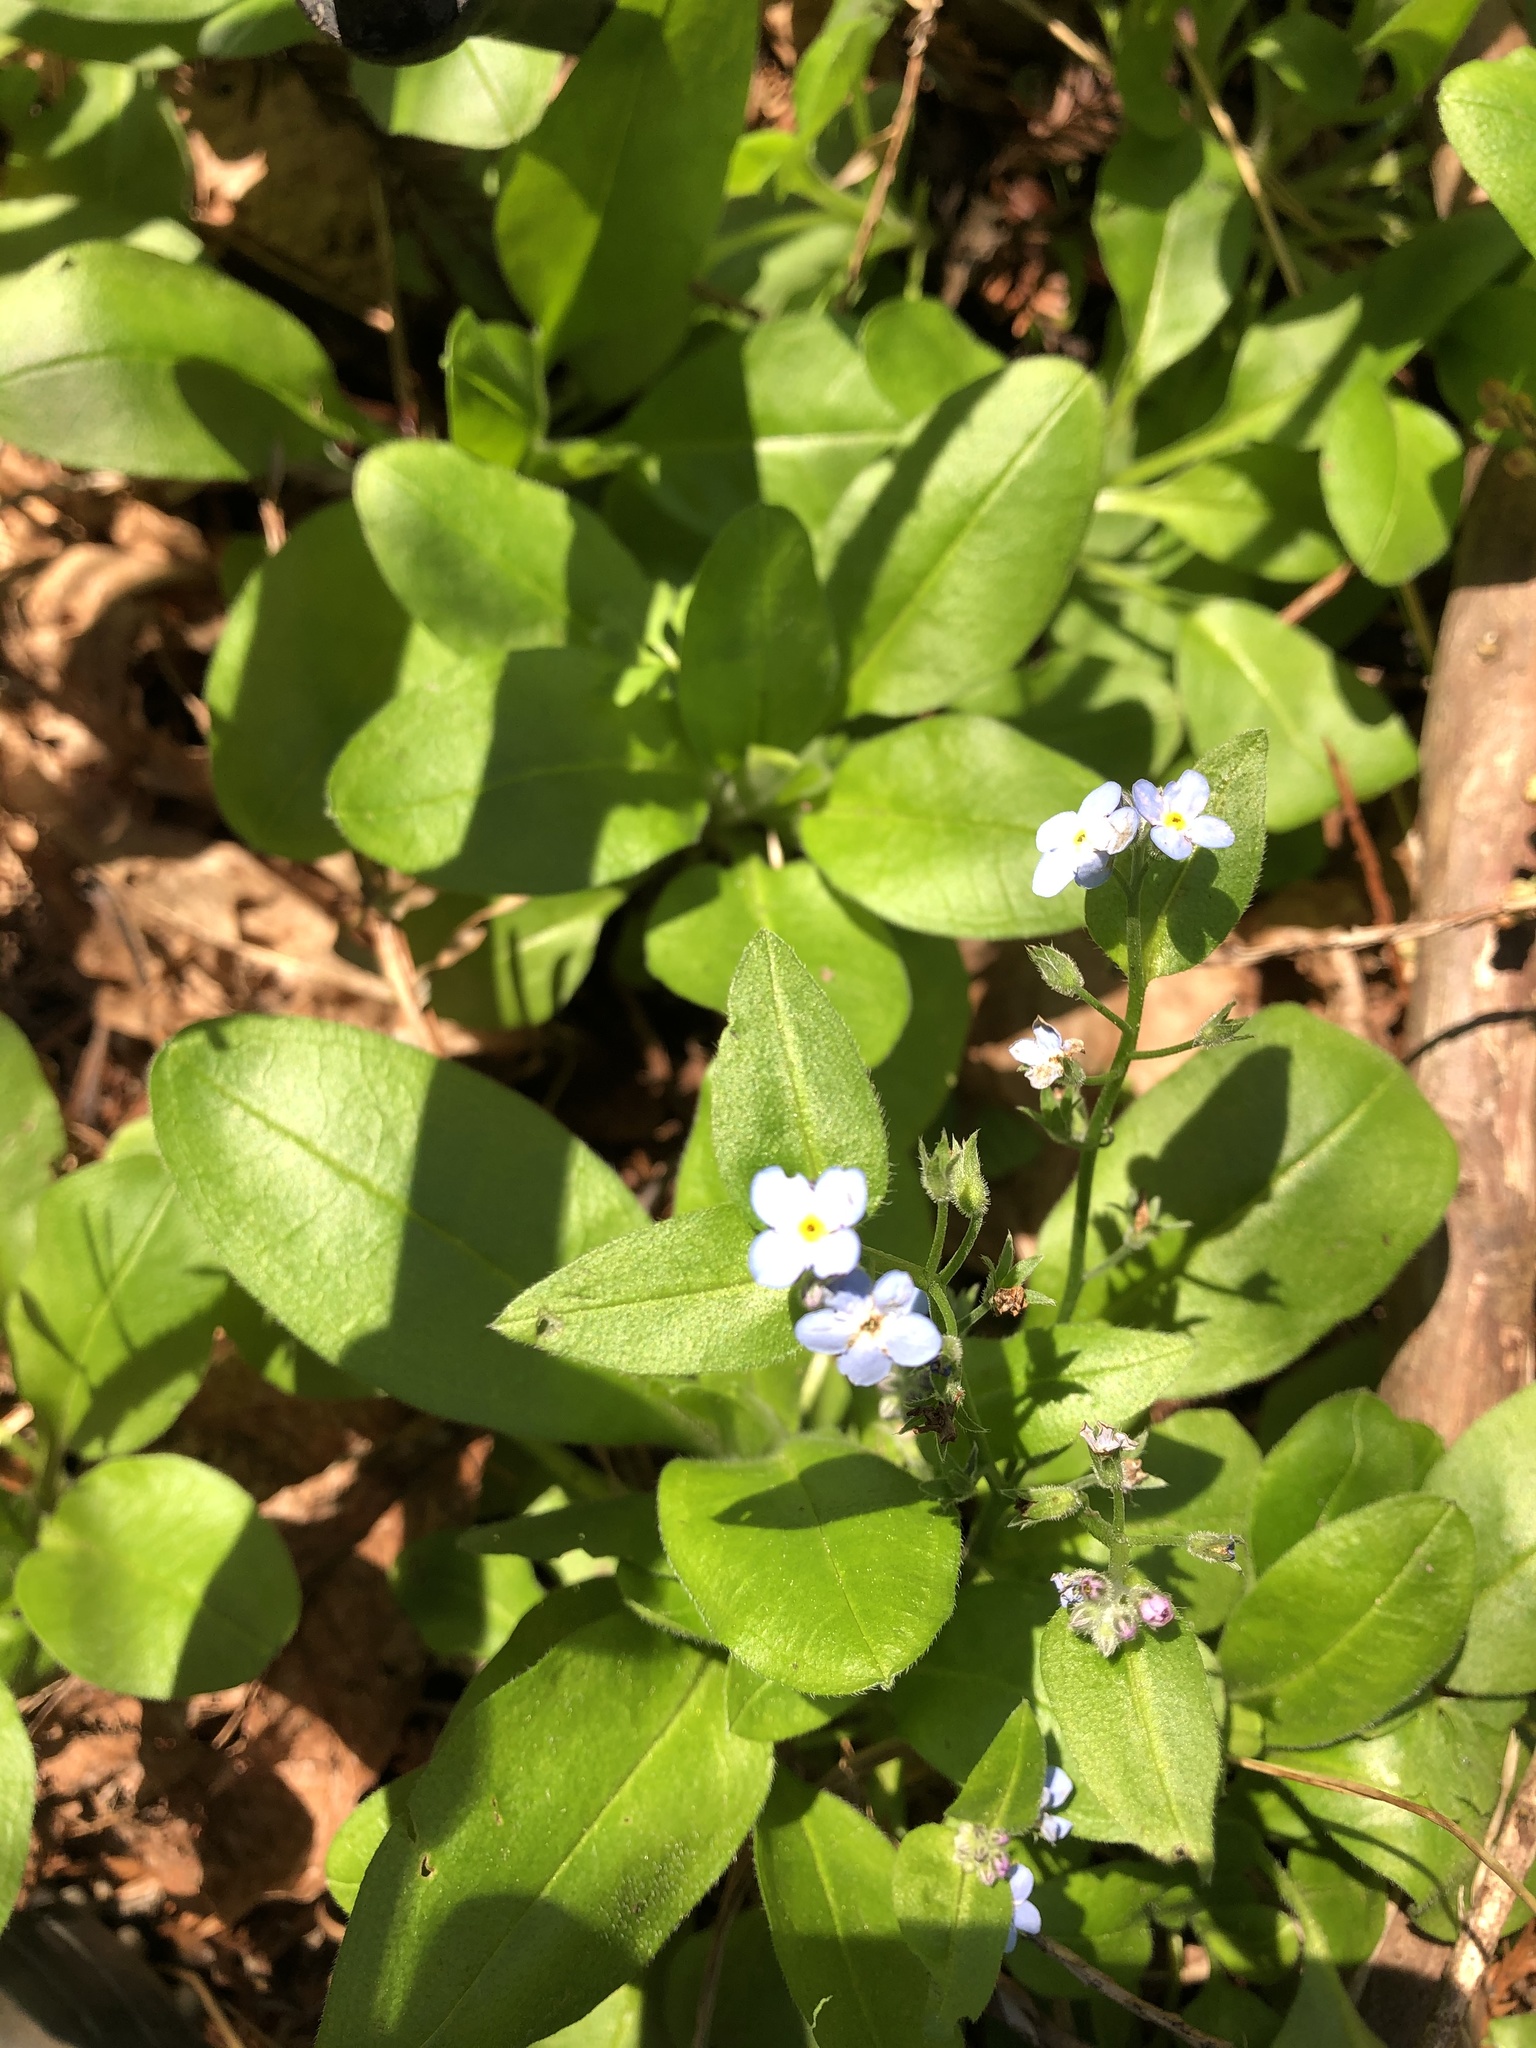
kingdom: Plantae
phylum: Tracheophyta
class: Magnoliopsida
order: Boraginales
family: Boraginaceae
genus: Myosotis
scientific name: Myosotis latifolia
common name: Broadleaf forget-me-not
